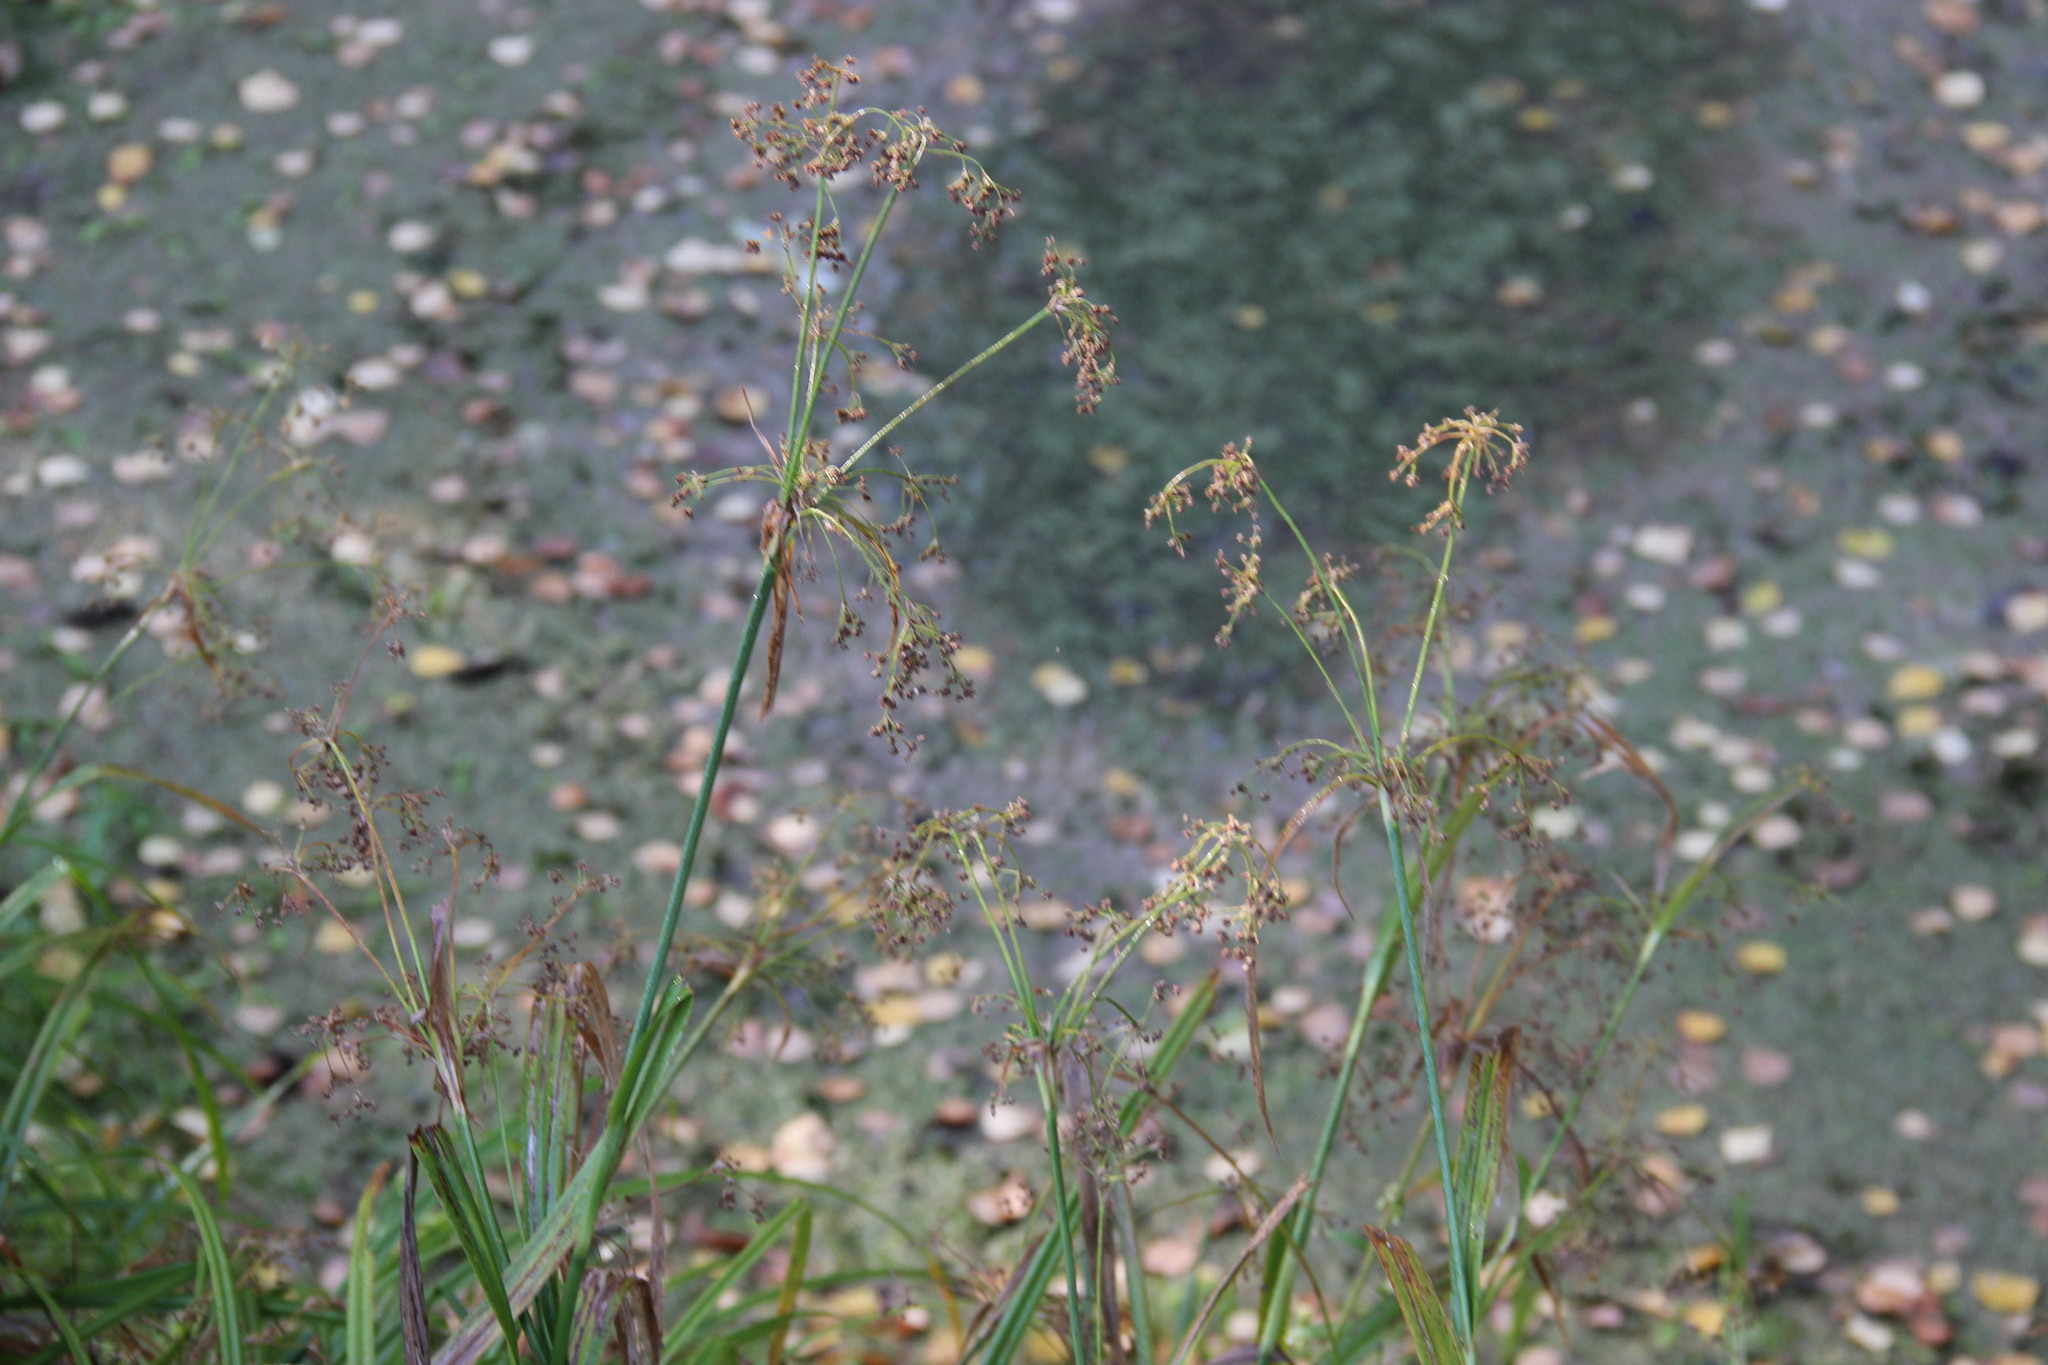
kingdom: Plantae
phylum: Tracheophyta
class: Liliopsida
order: Poales
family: Cyperaceae
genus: Scirpus
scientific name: Scirpus sylvaticus
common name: Wood club-rush
